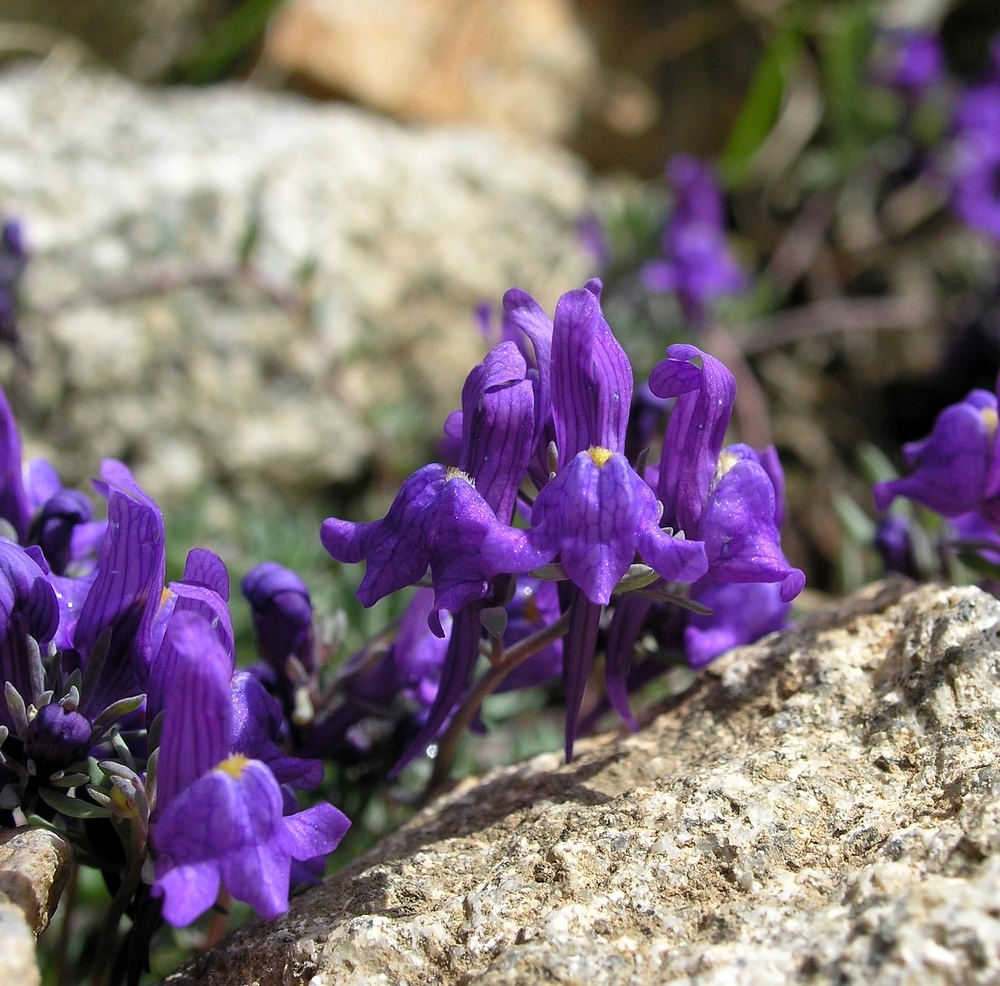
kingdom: Plantae
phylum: Tracheophyta
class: Magnoliopsida
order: Lamiales
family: Plantaginaceae
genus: Linaria
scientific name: Linaria alpina
